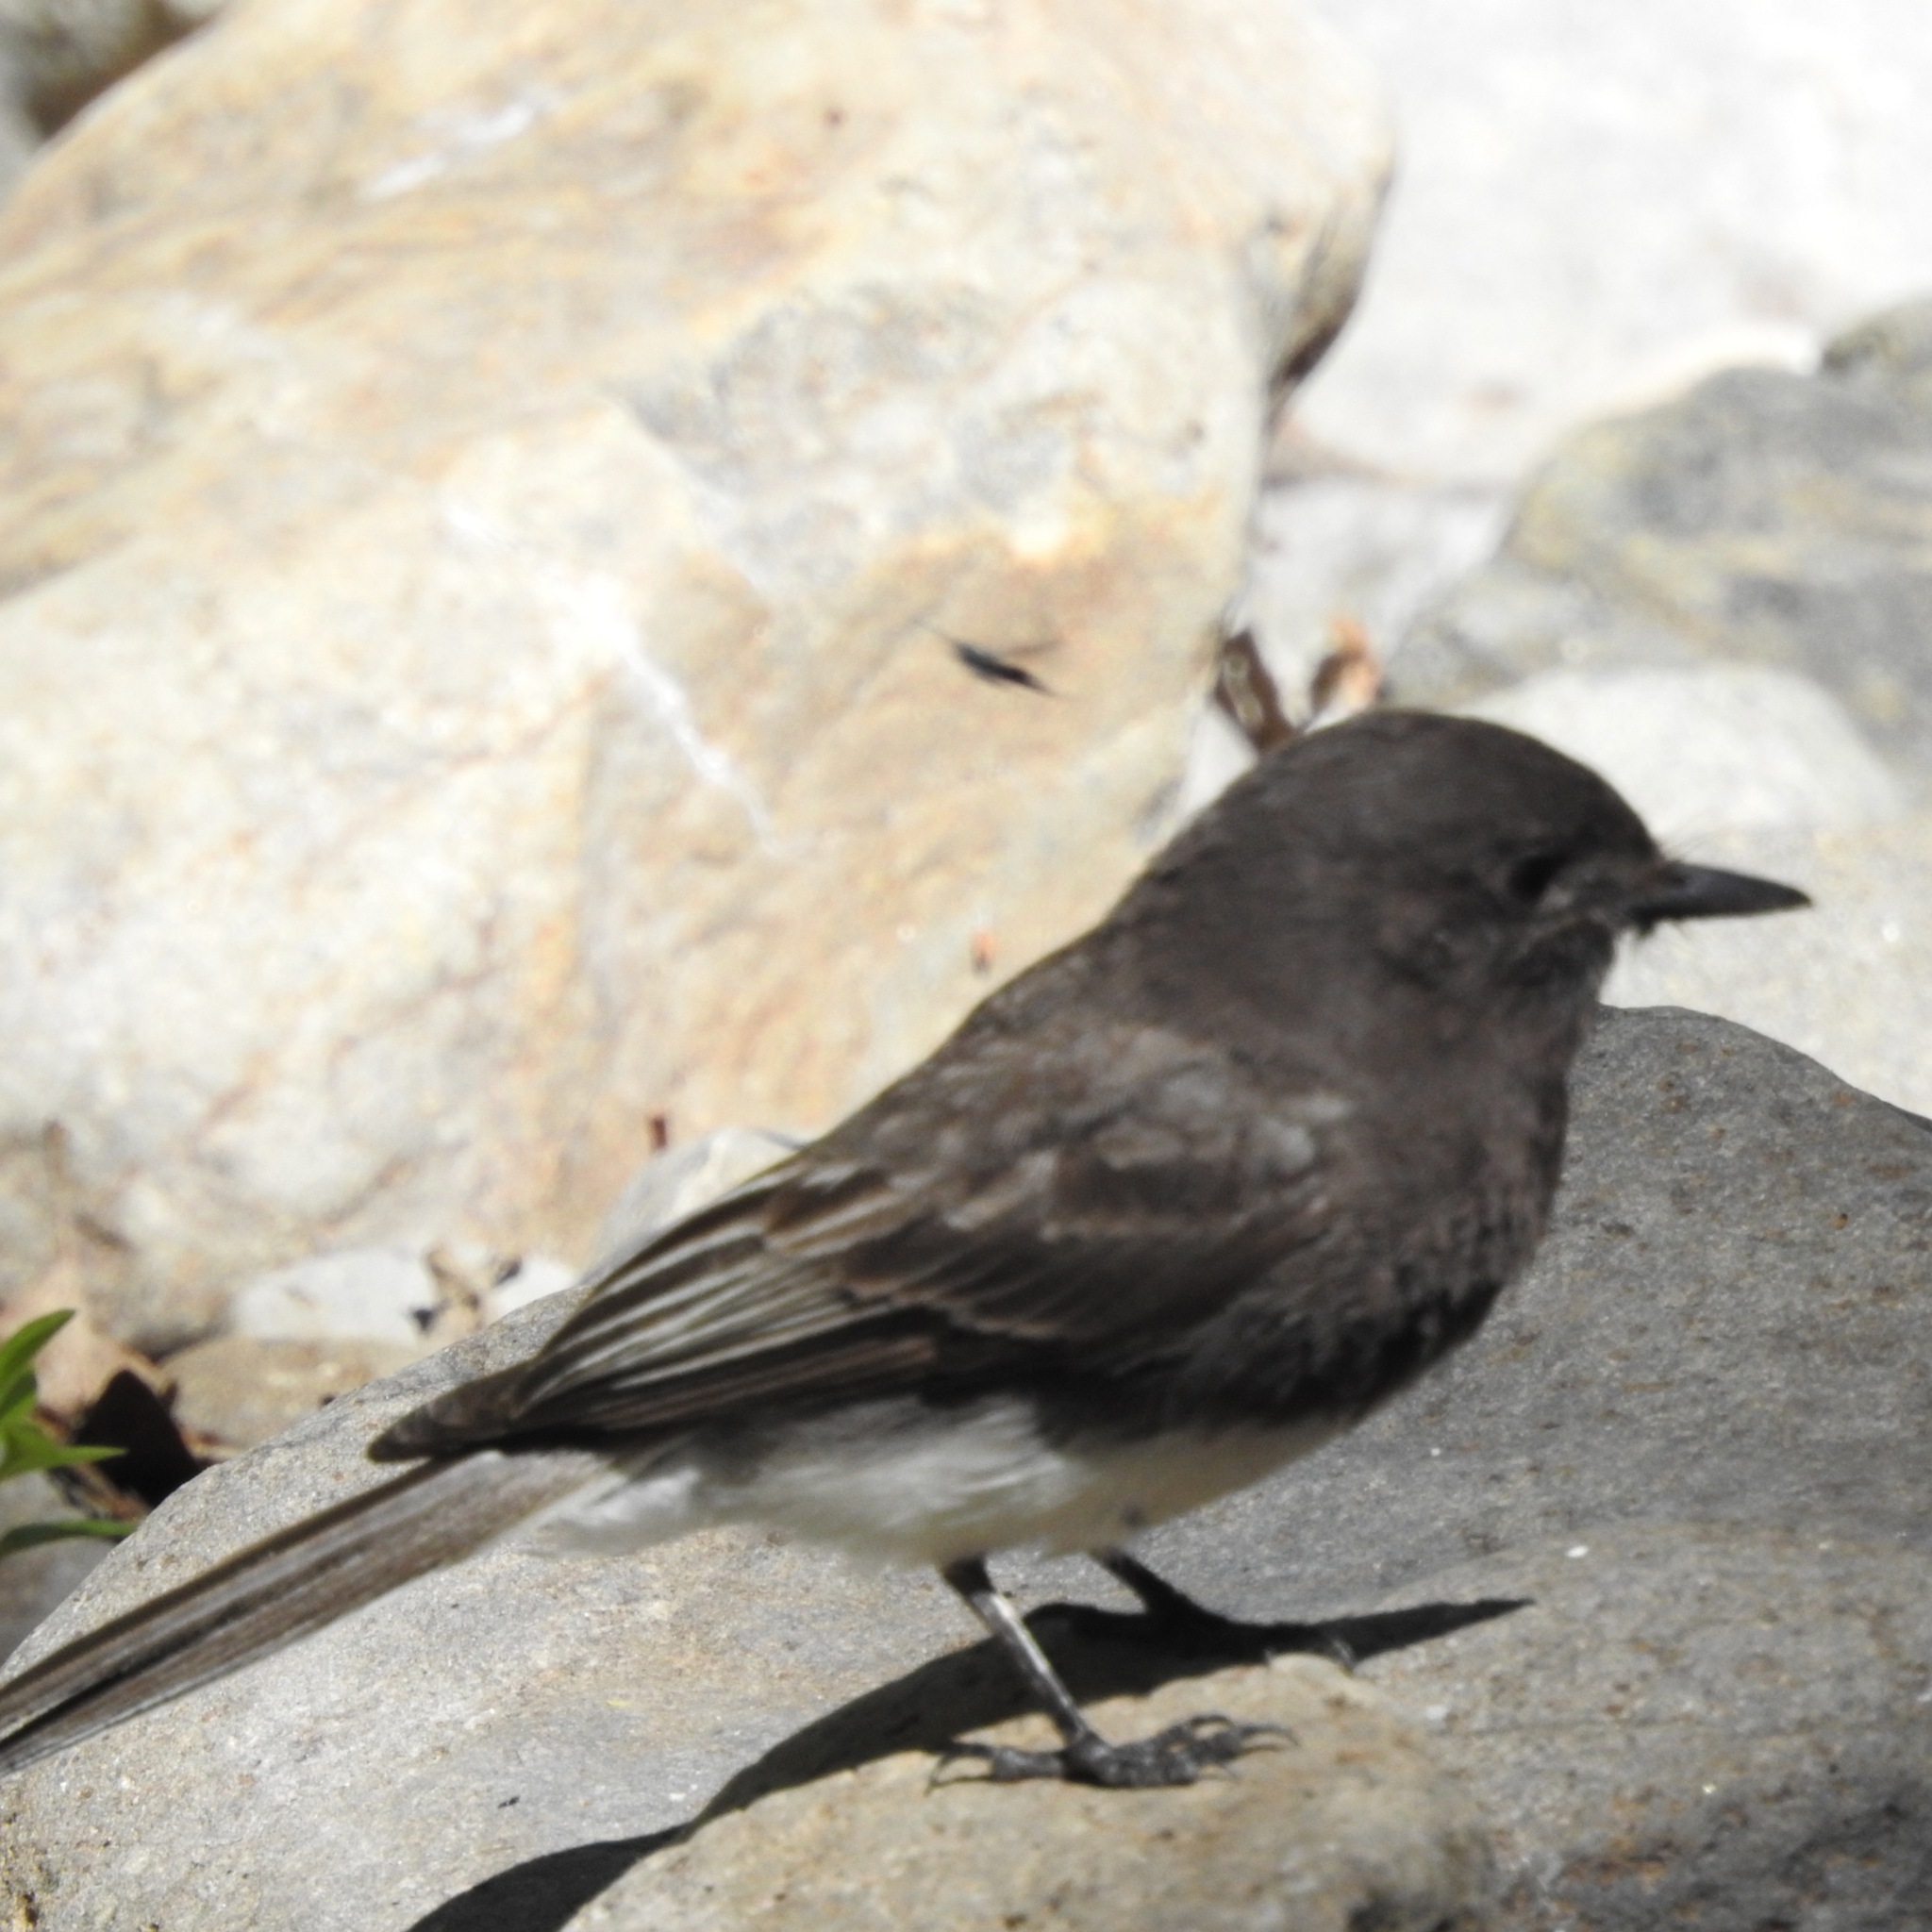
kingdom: Animalia
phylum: Chordata
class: Aves
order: Passeriformes
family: Tyrannidae
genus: Sayornis
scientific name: Sayornis nigricans
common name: Black phoebe
